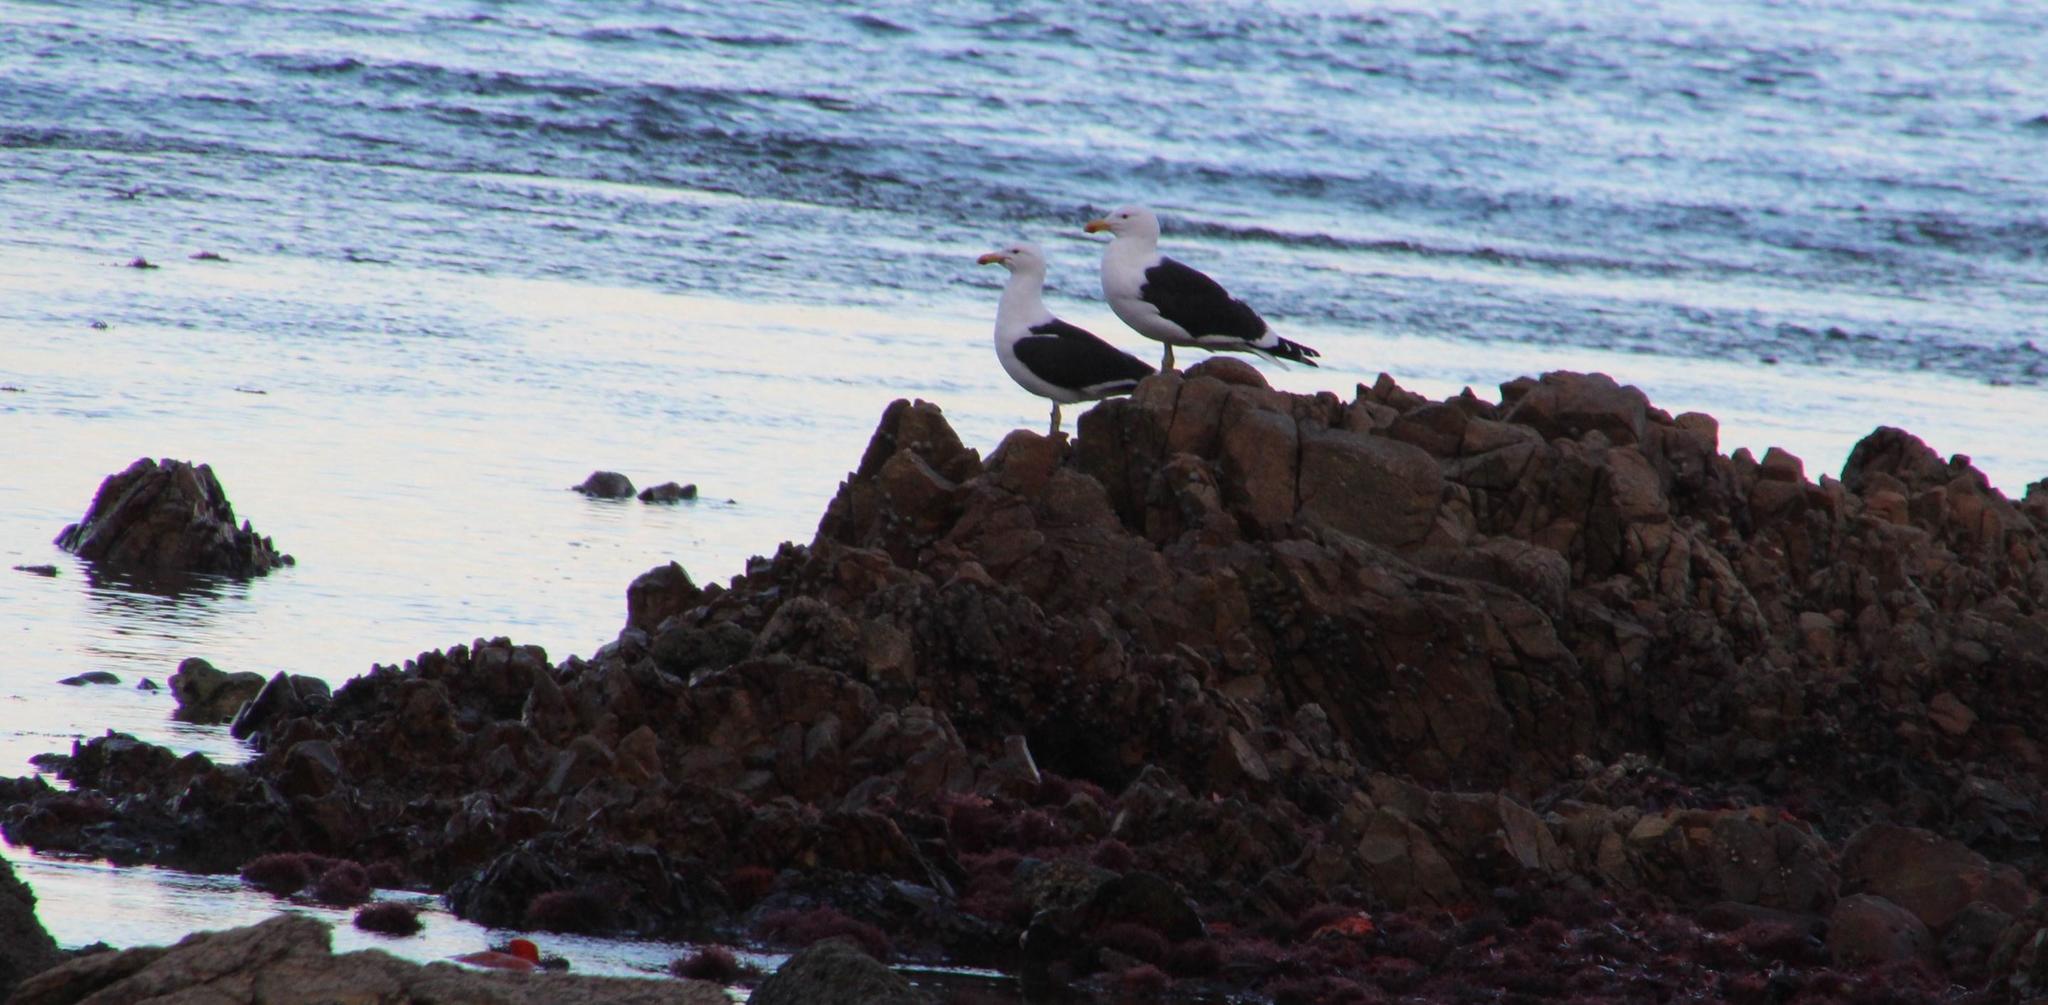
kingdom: Animalia
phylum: Chordata
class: Aves
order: Charadriiformes
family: Laridae
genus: Larus
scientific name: Larus dominicanus
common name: Kelp gull
